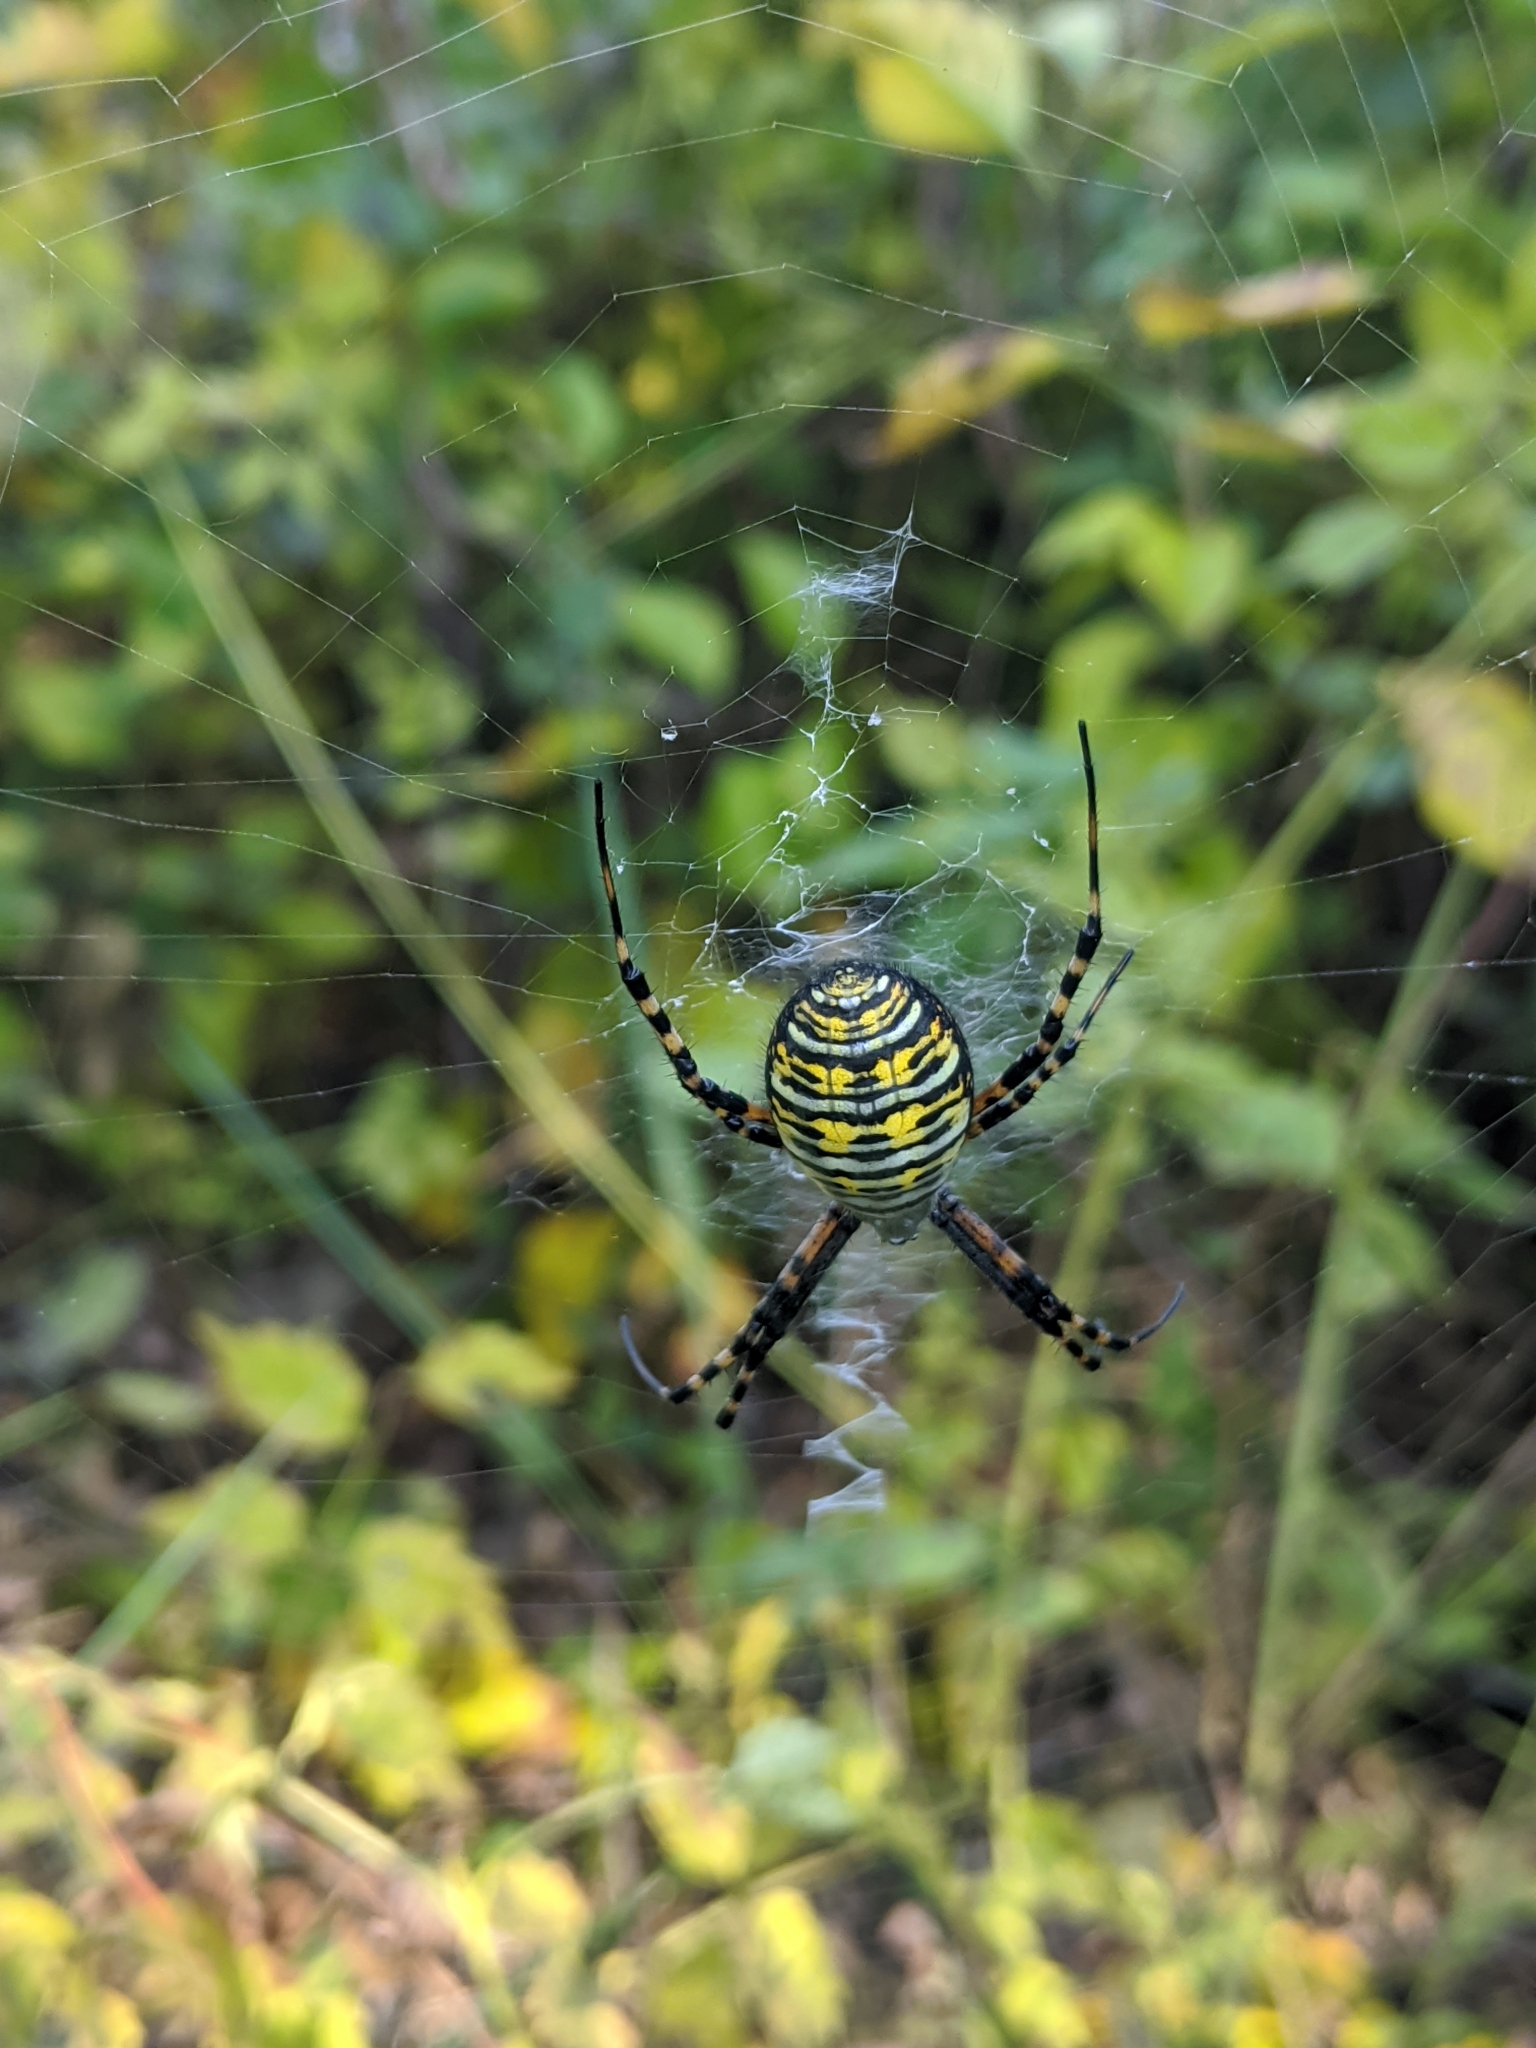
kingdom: Animalia
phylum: Arthropoda
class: Arachnida
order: Araneae
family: Araneidae
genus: Argiope
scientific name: Argiope trifasciata
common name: Banded garden spider
